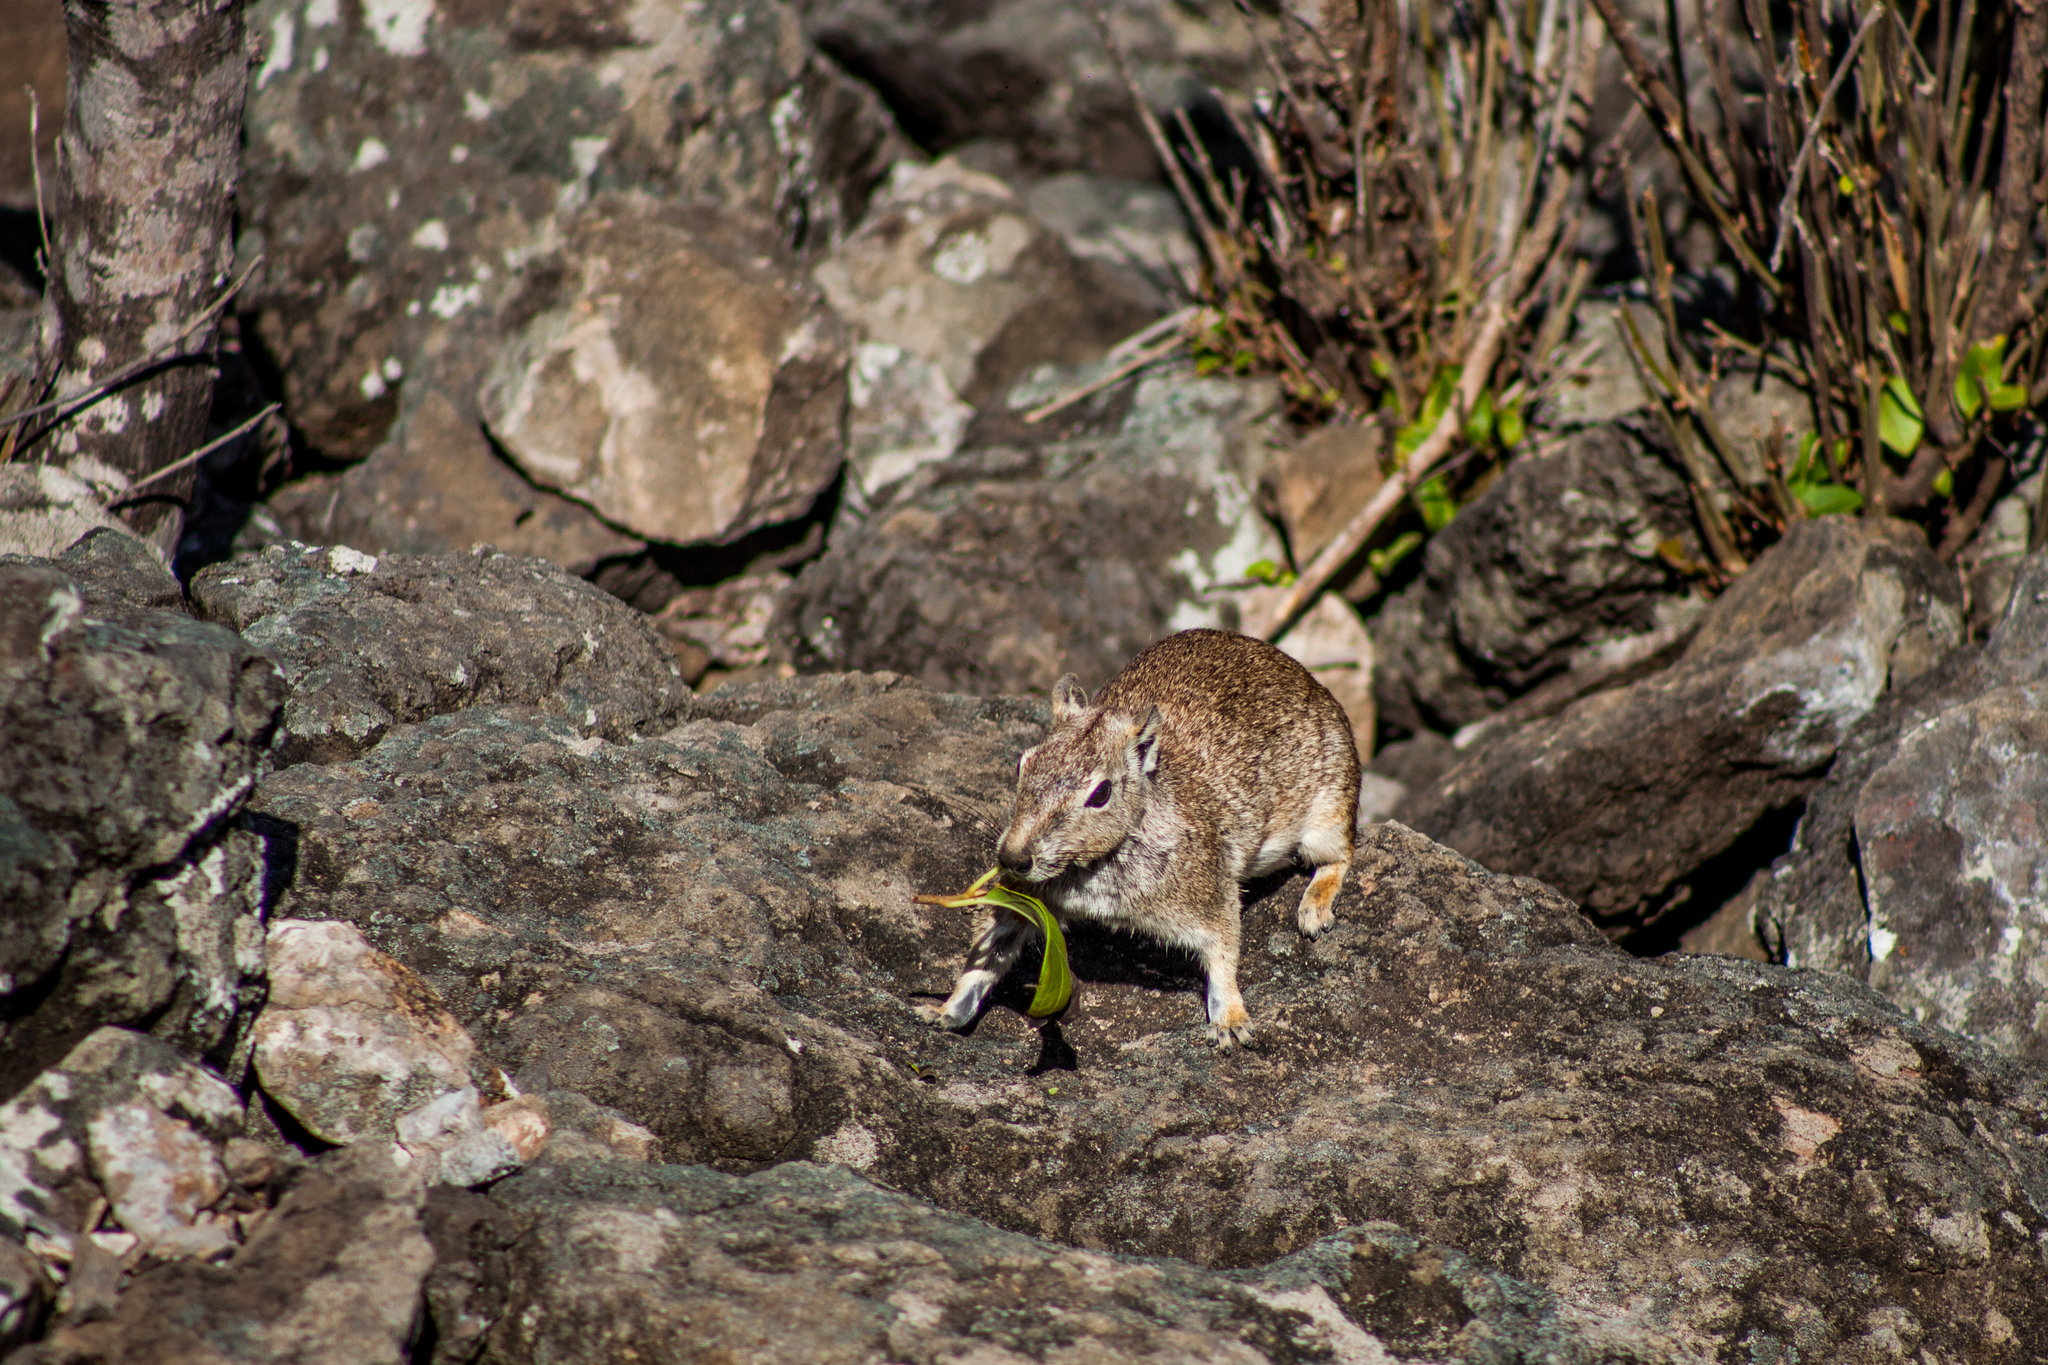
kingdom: Animalia
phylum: Chordata
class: Mammalia
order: Rodentia
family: Caviidae
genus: Kerodon
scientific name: Kerodon rupestris
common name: Rock cavy
